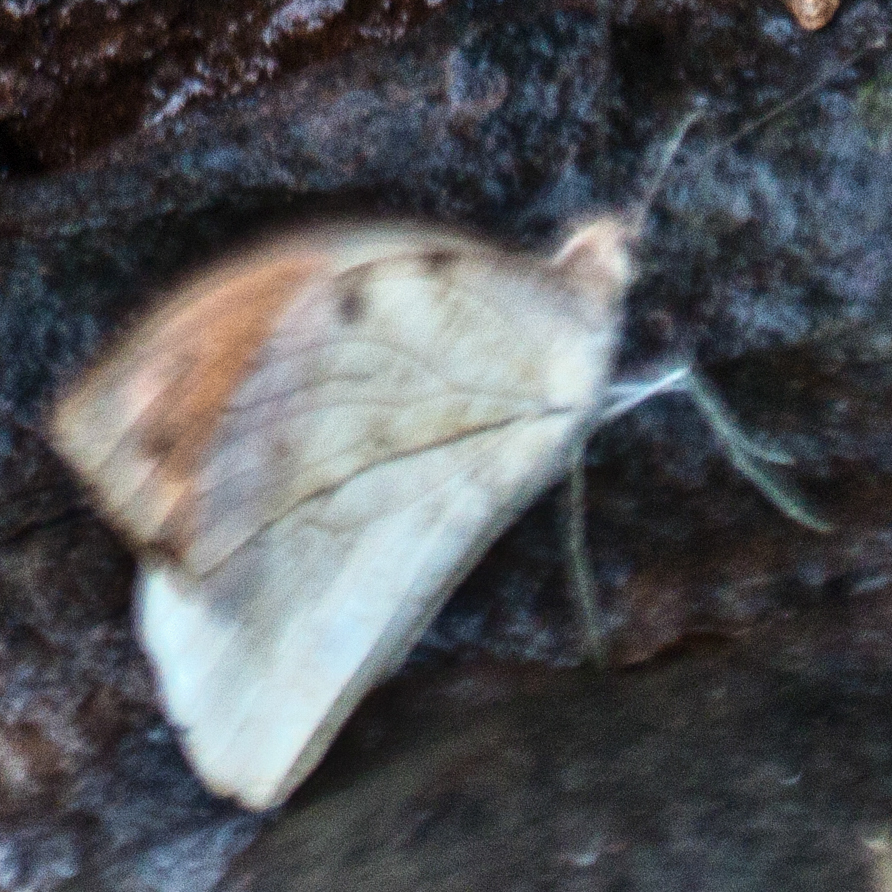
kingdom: Animalia
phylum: Arthropoda
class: Insecta
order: Lepidoptera
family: Pieridae
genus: Hebomoia
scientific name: Hebomoia glaucippe
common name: Great orange tip
